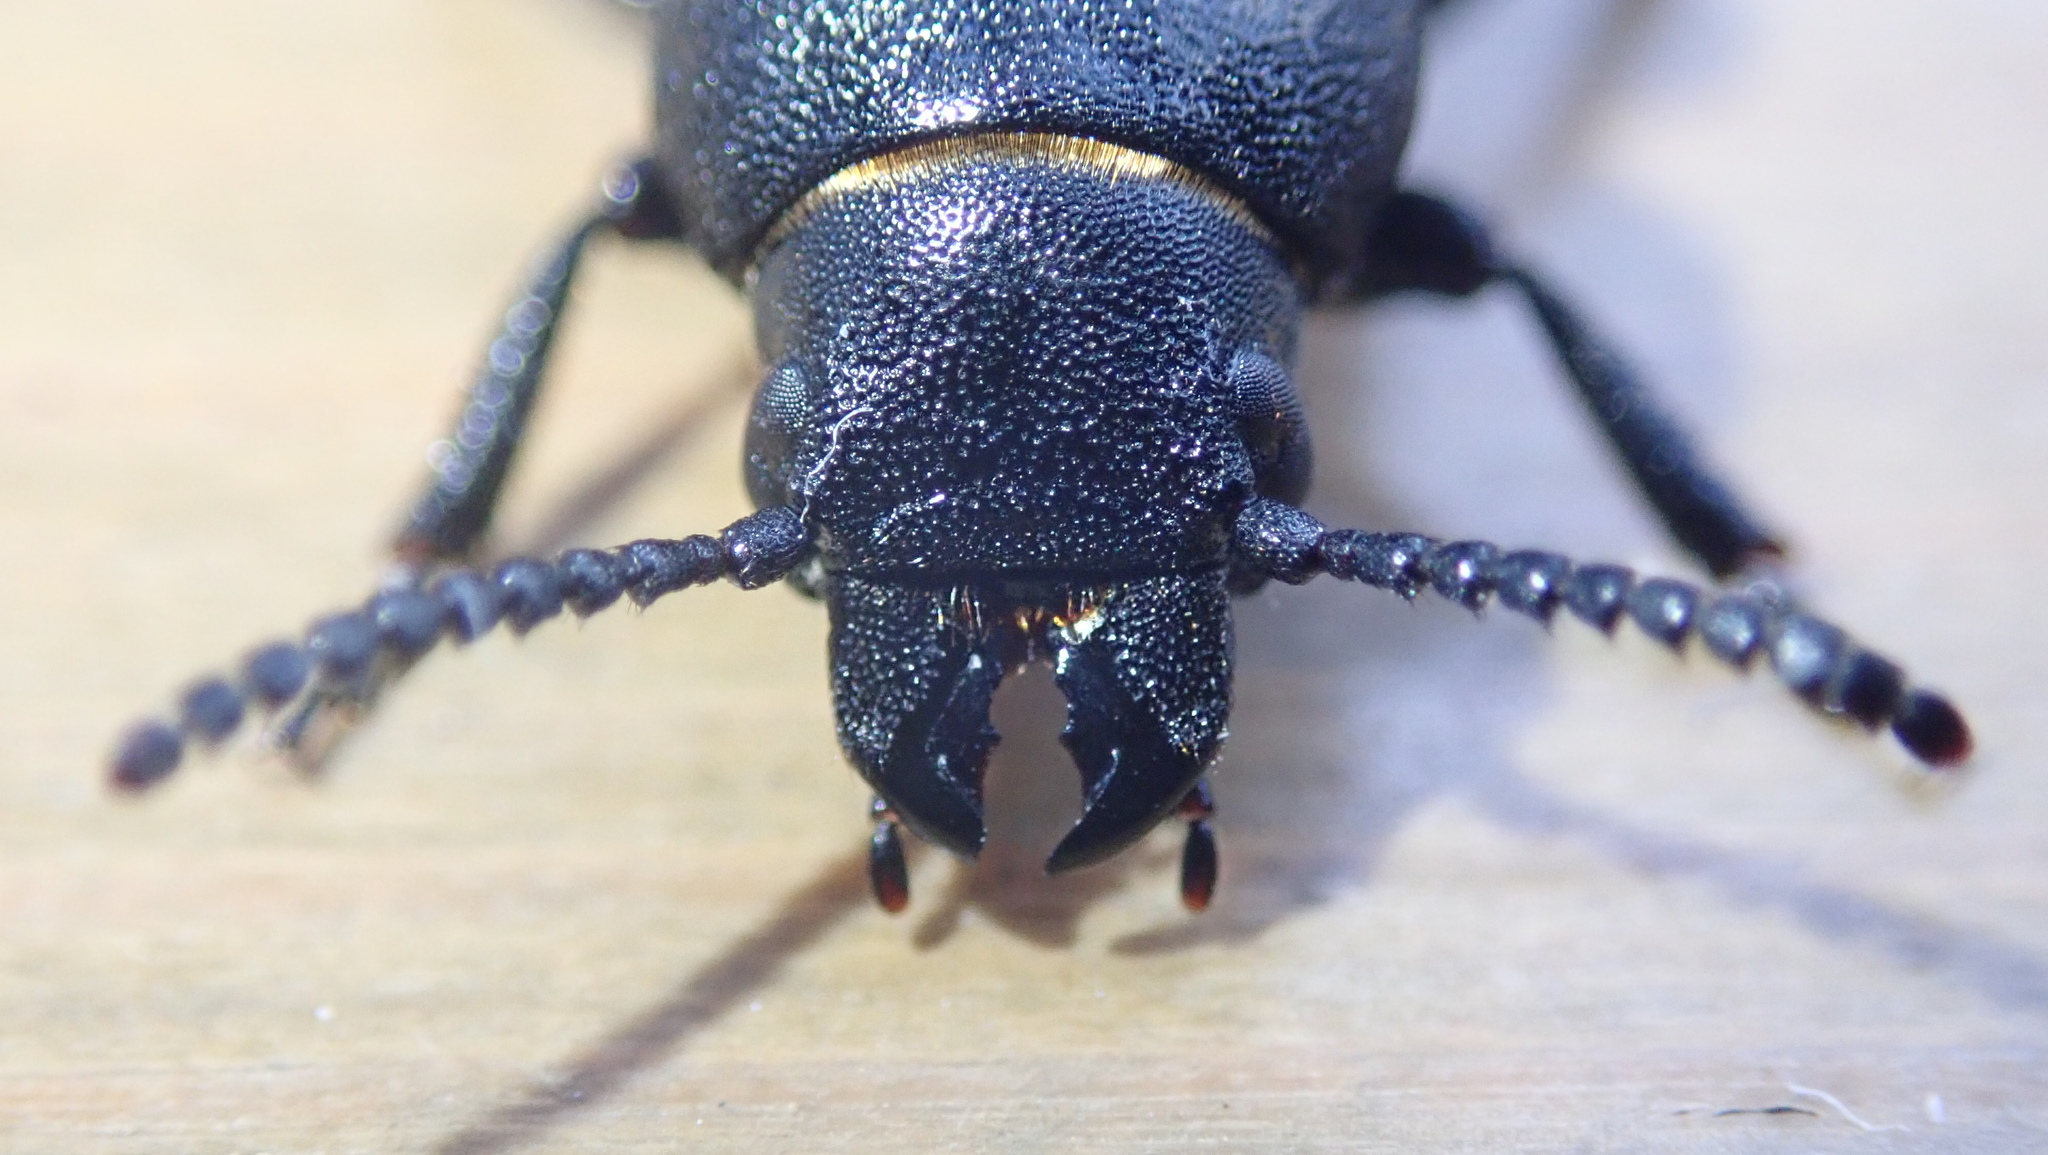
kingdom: Animalia
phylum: Arthropoda
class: Insecta
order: Coleoptera
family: Cerambycidae
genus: Spondylis
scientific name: Spondylis buprestoides
